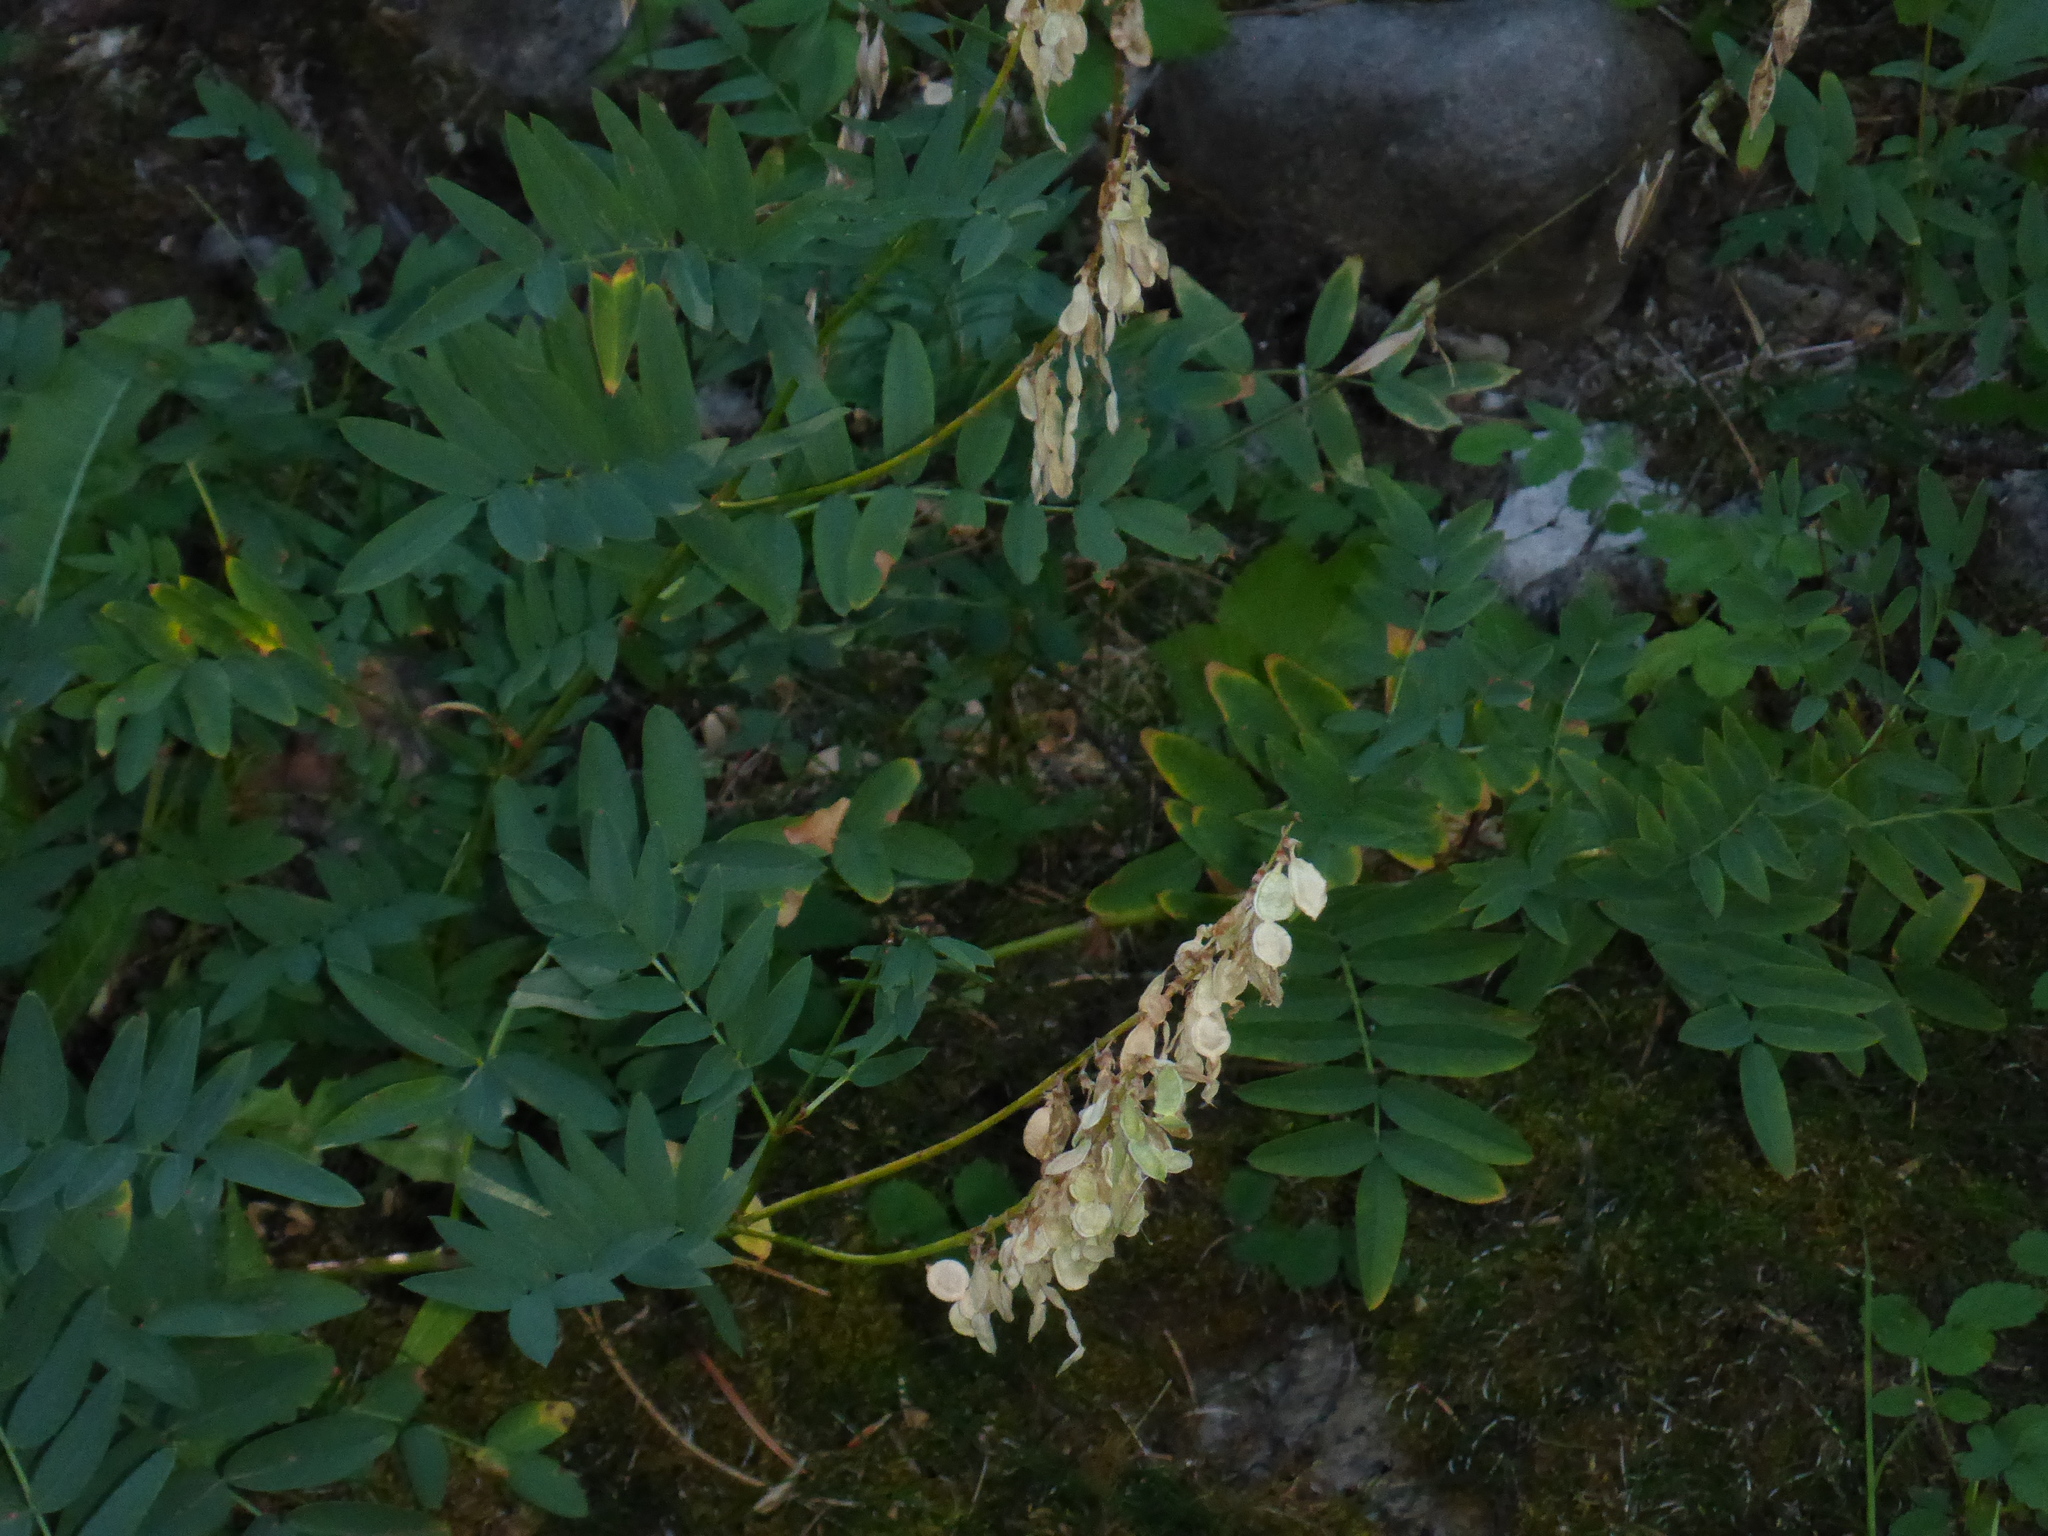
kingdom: Plantae
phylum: Tracheophyta
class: Magnoliopsida
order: Fabales
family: Fabaceae
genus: Hedysarum
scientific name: Hedysarum sulphurescens
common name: Sulphur hedysarum
